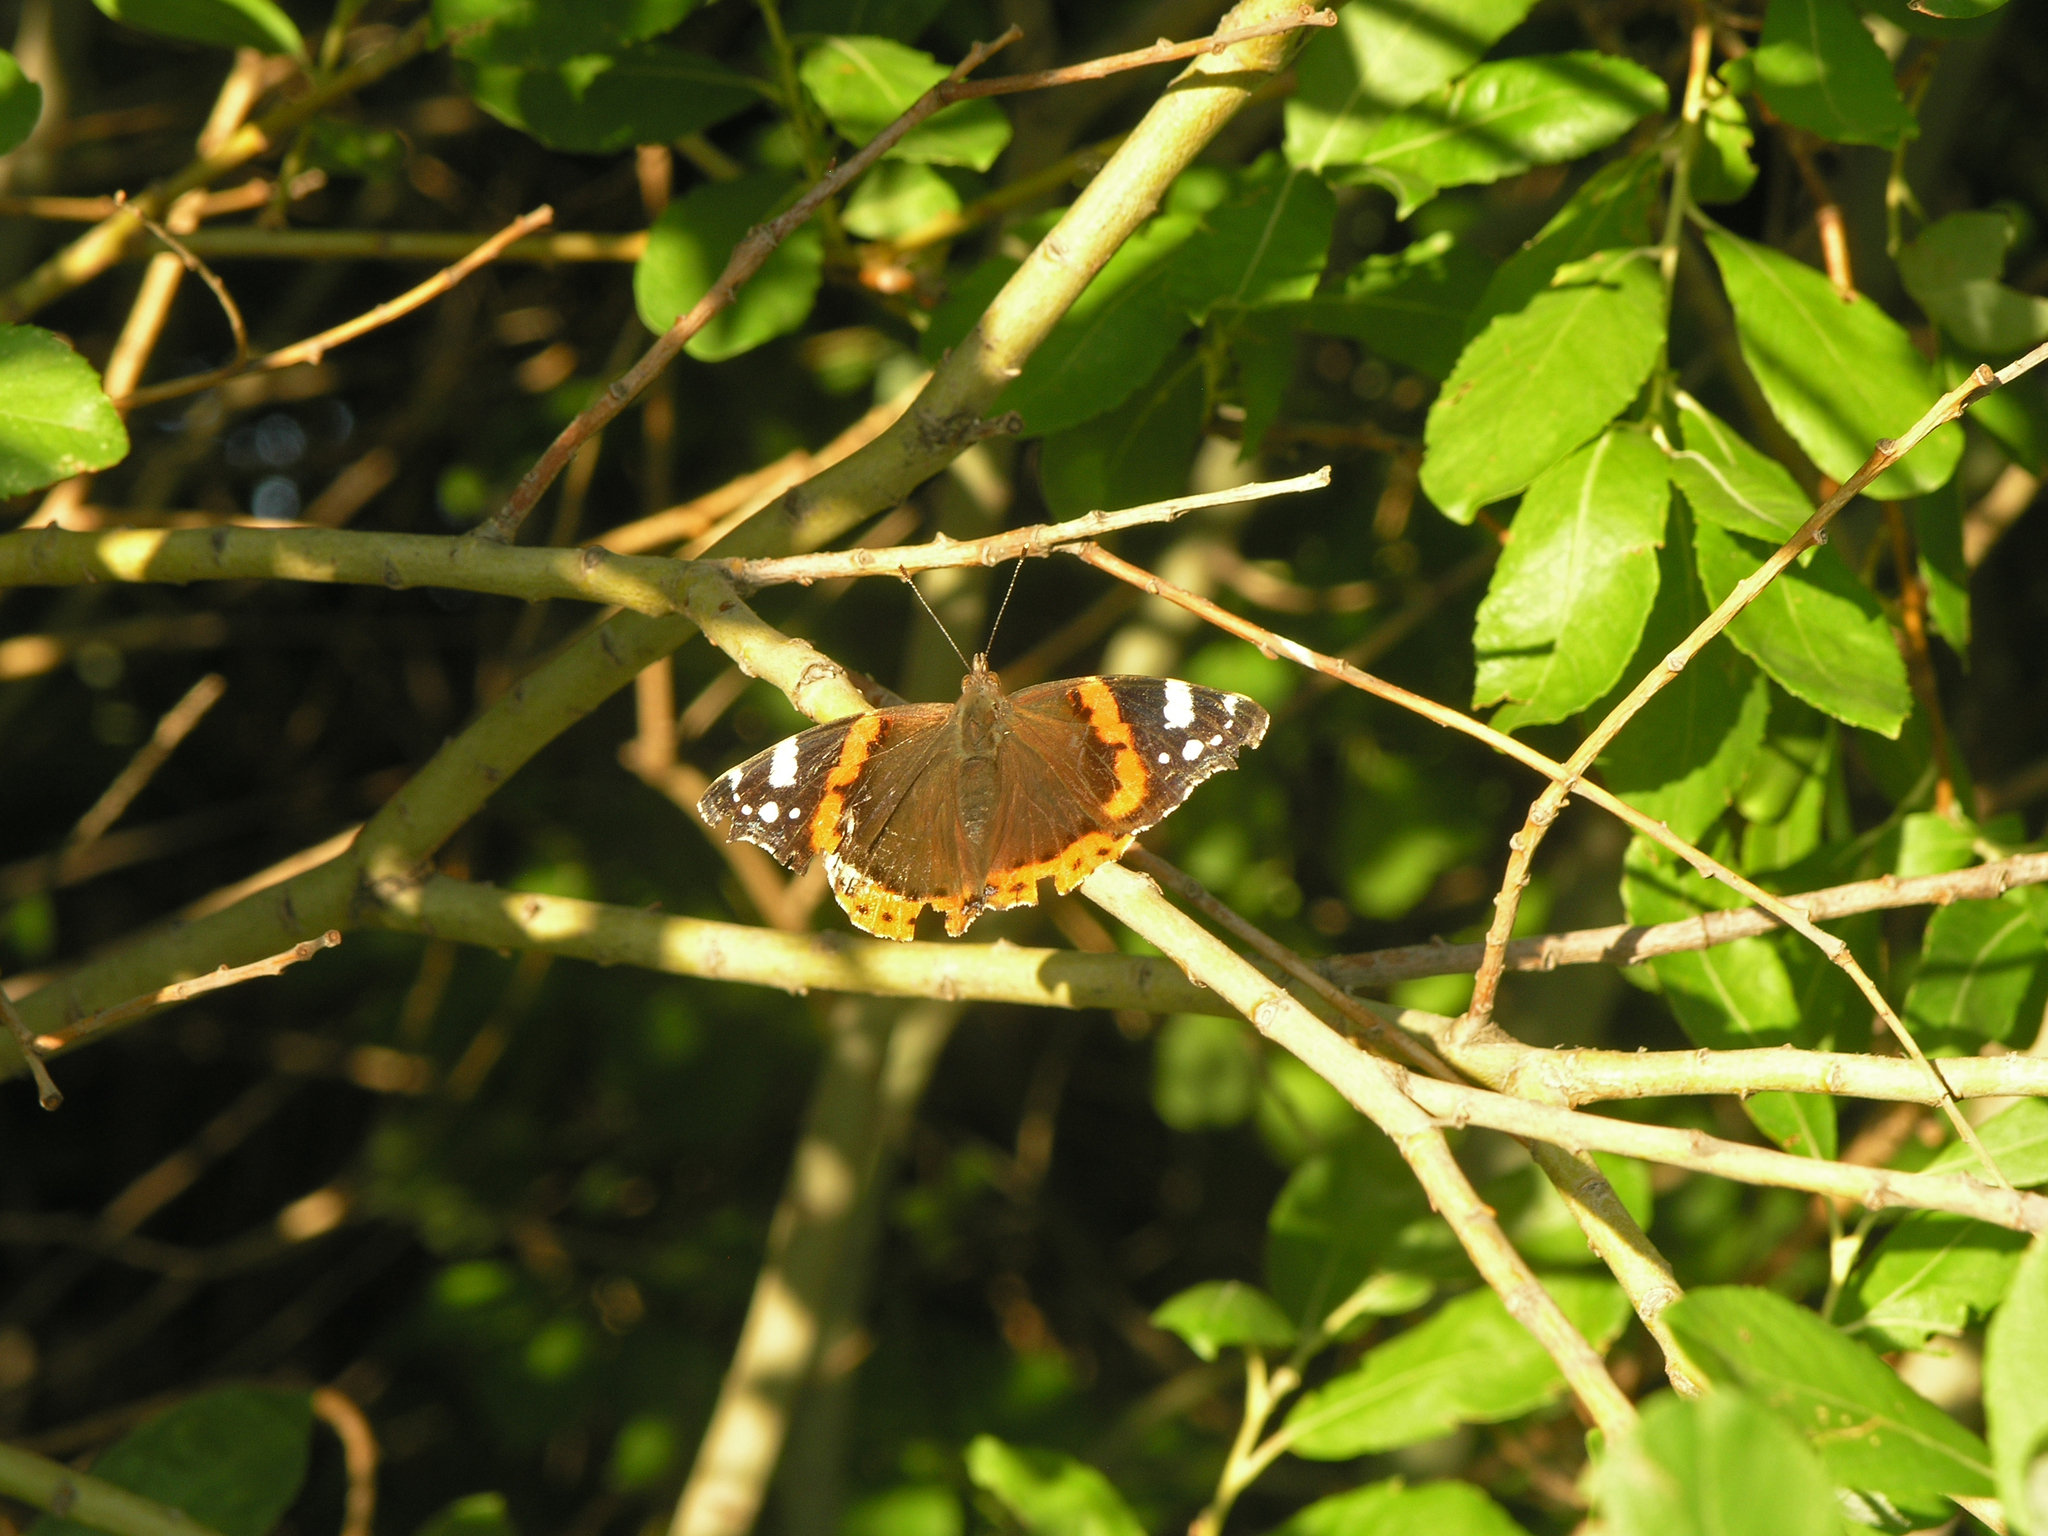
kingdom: Animalia
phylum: Arthropoda
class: Insecta
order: Lepidoptera
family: Nymphalidae
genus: Vanessa
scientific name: Vanessa atalanta
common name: Red admiral
